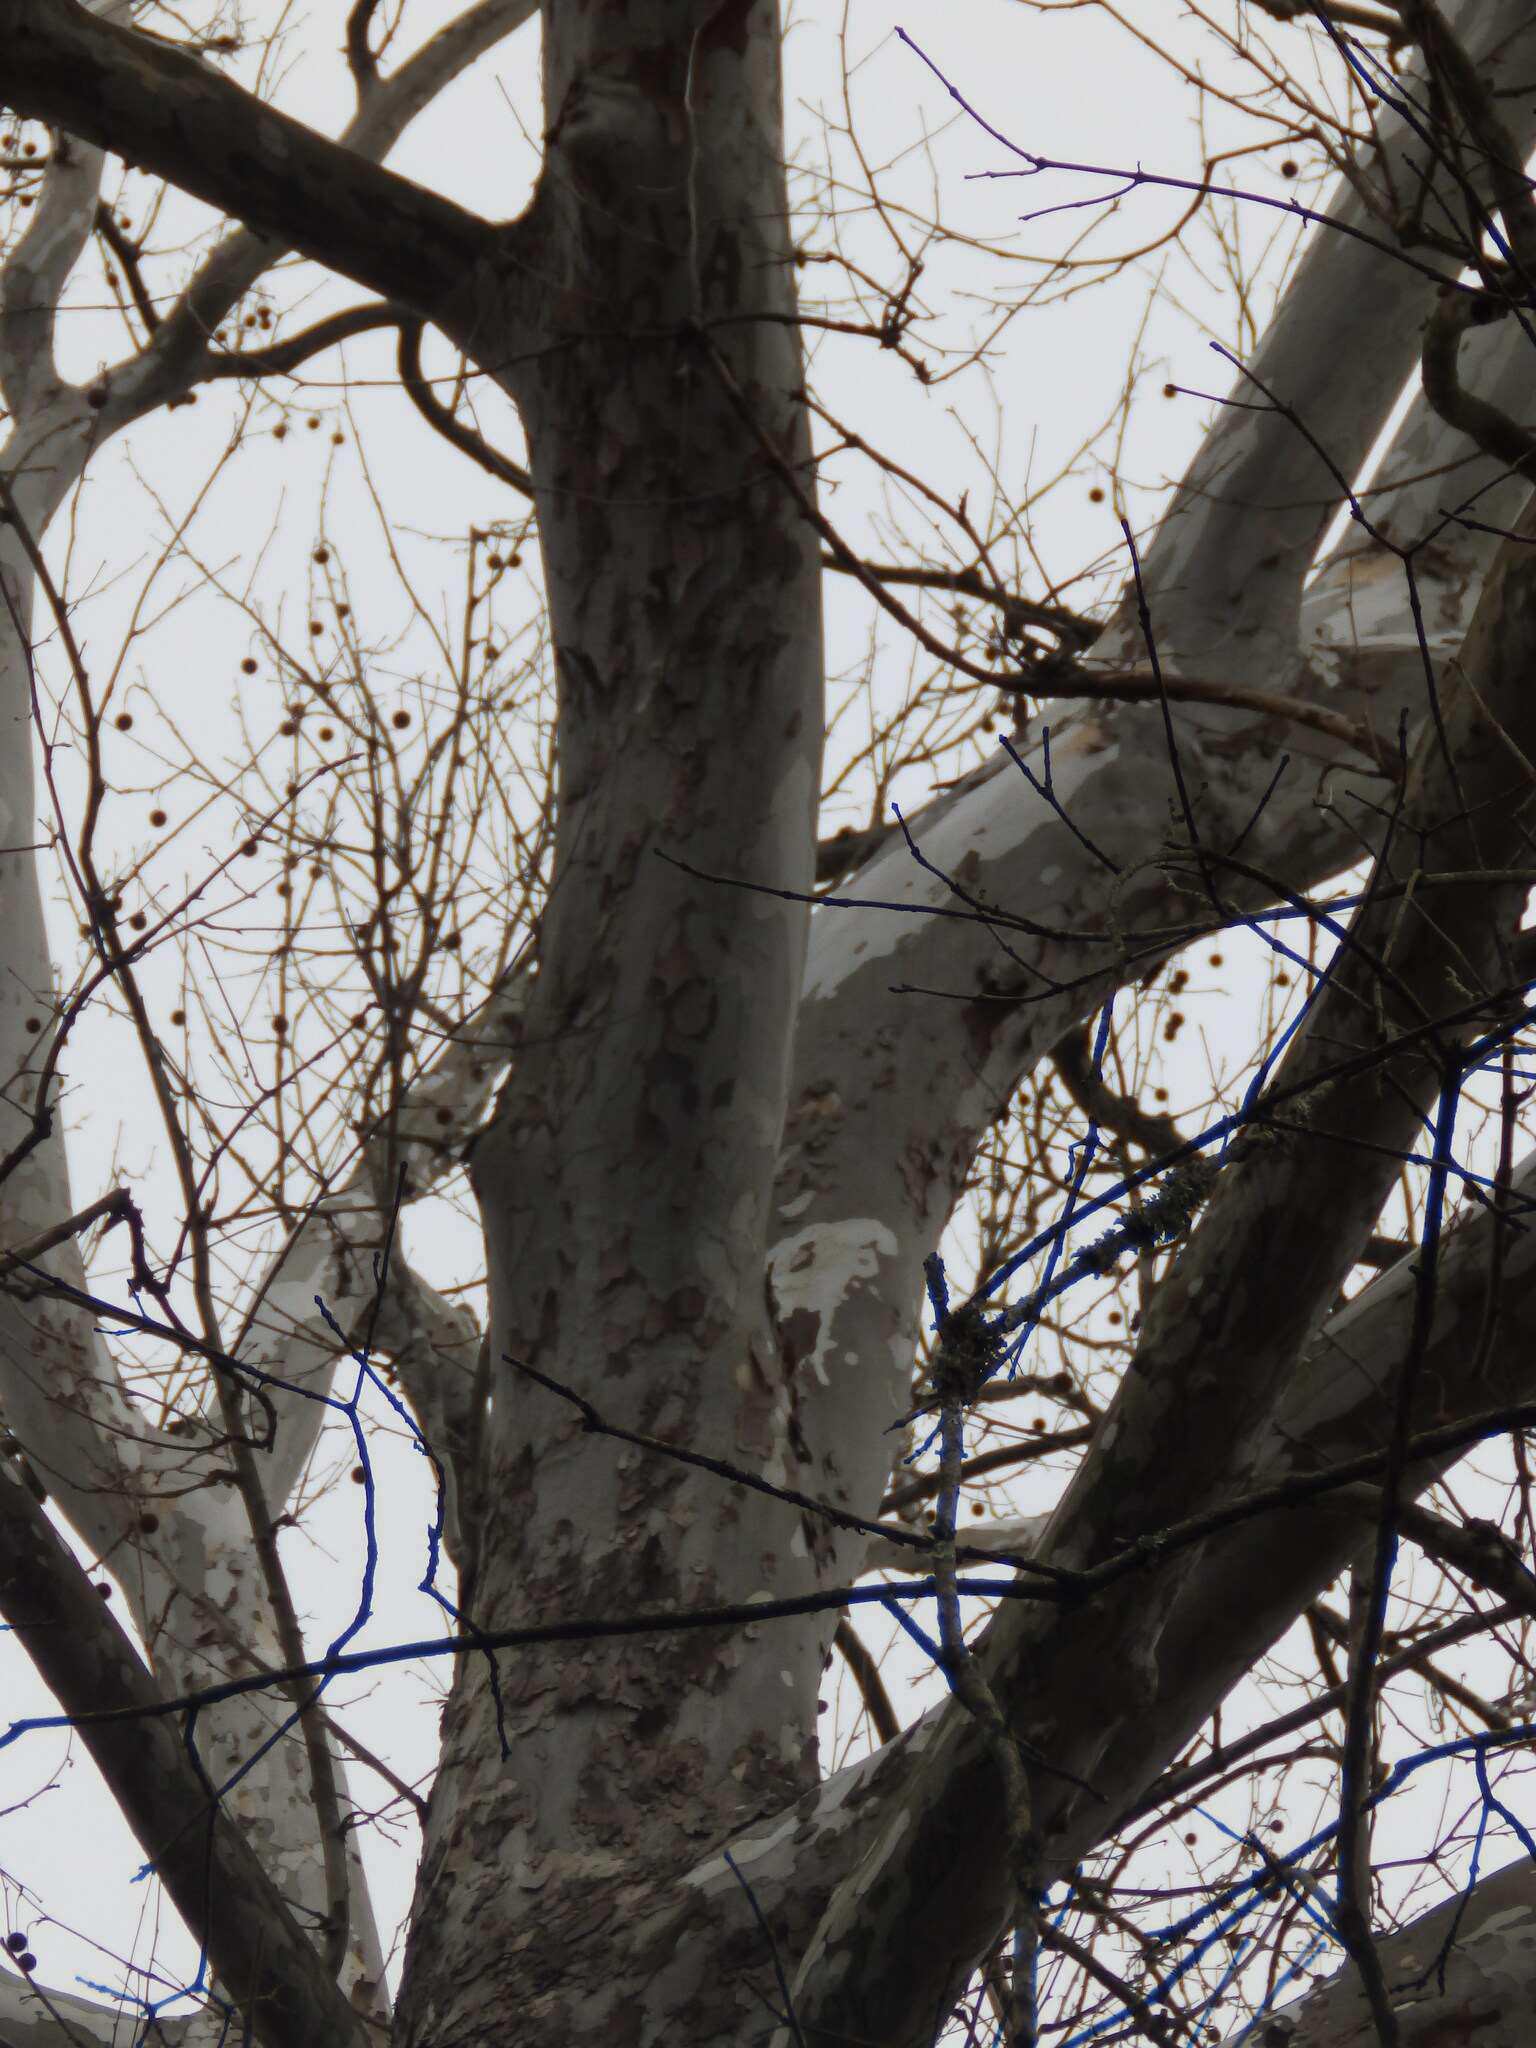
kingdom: Plantae
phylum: Tracheophyta
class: Magnoliopsida
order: Proteales
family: Platanaceae
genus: Platanus
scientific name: Platanus occidentalis
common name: American sycamore
